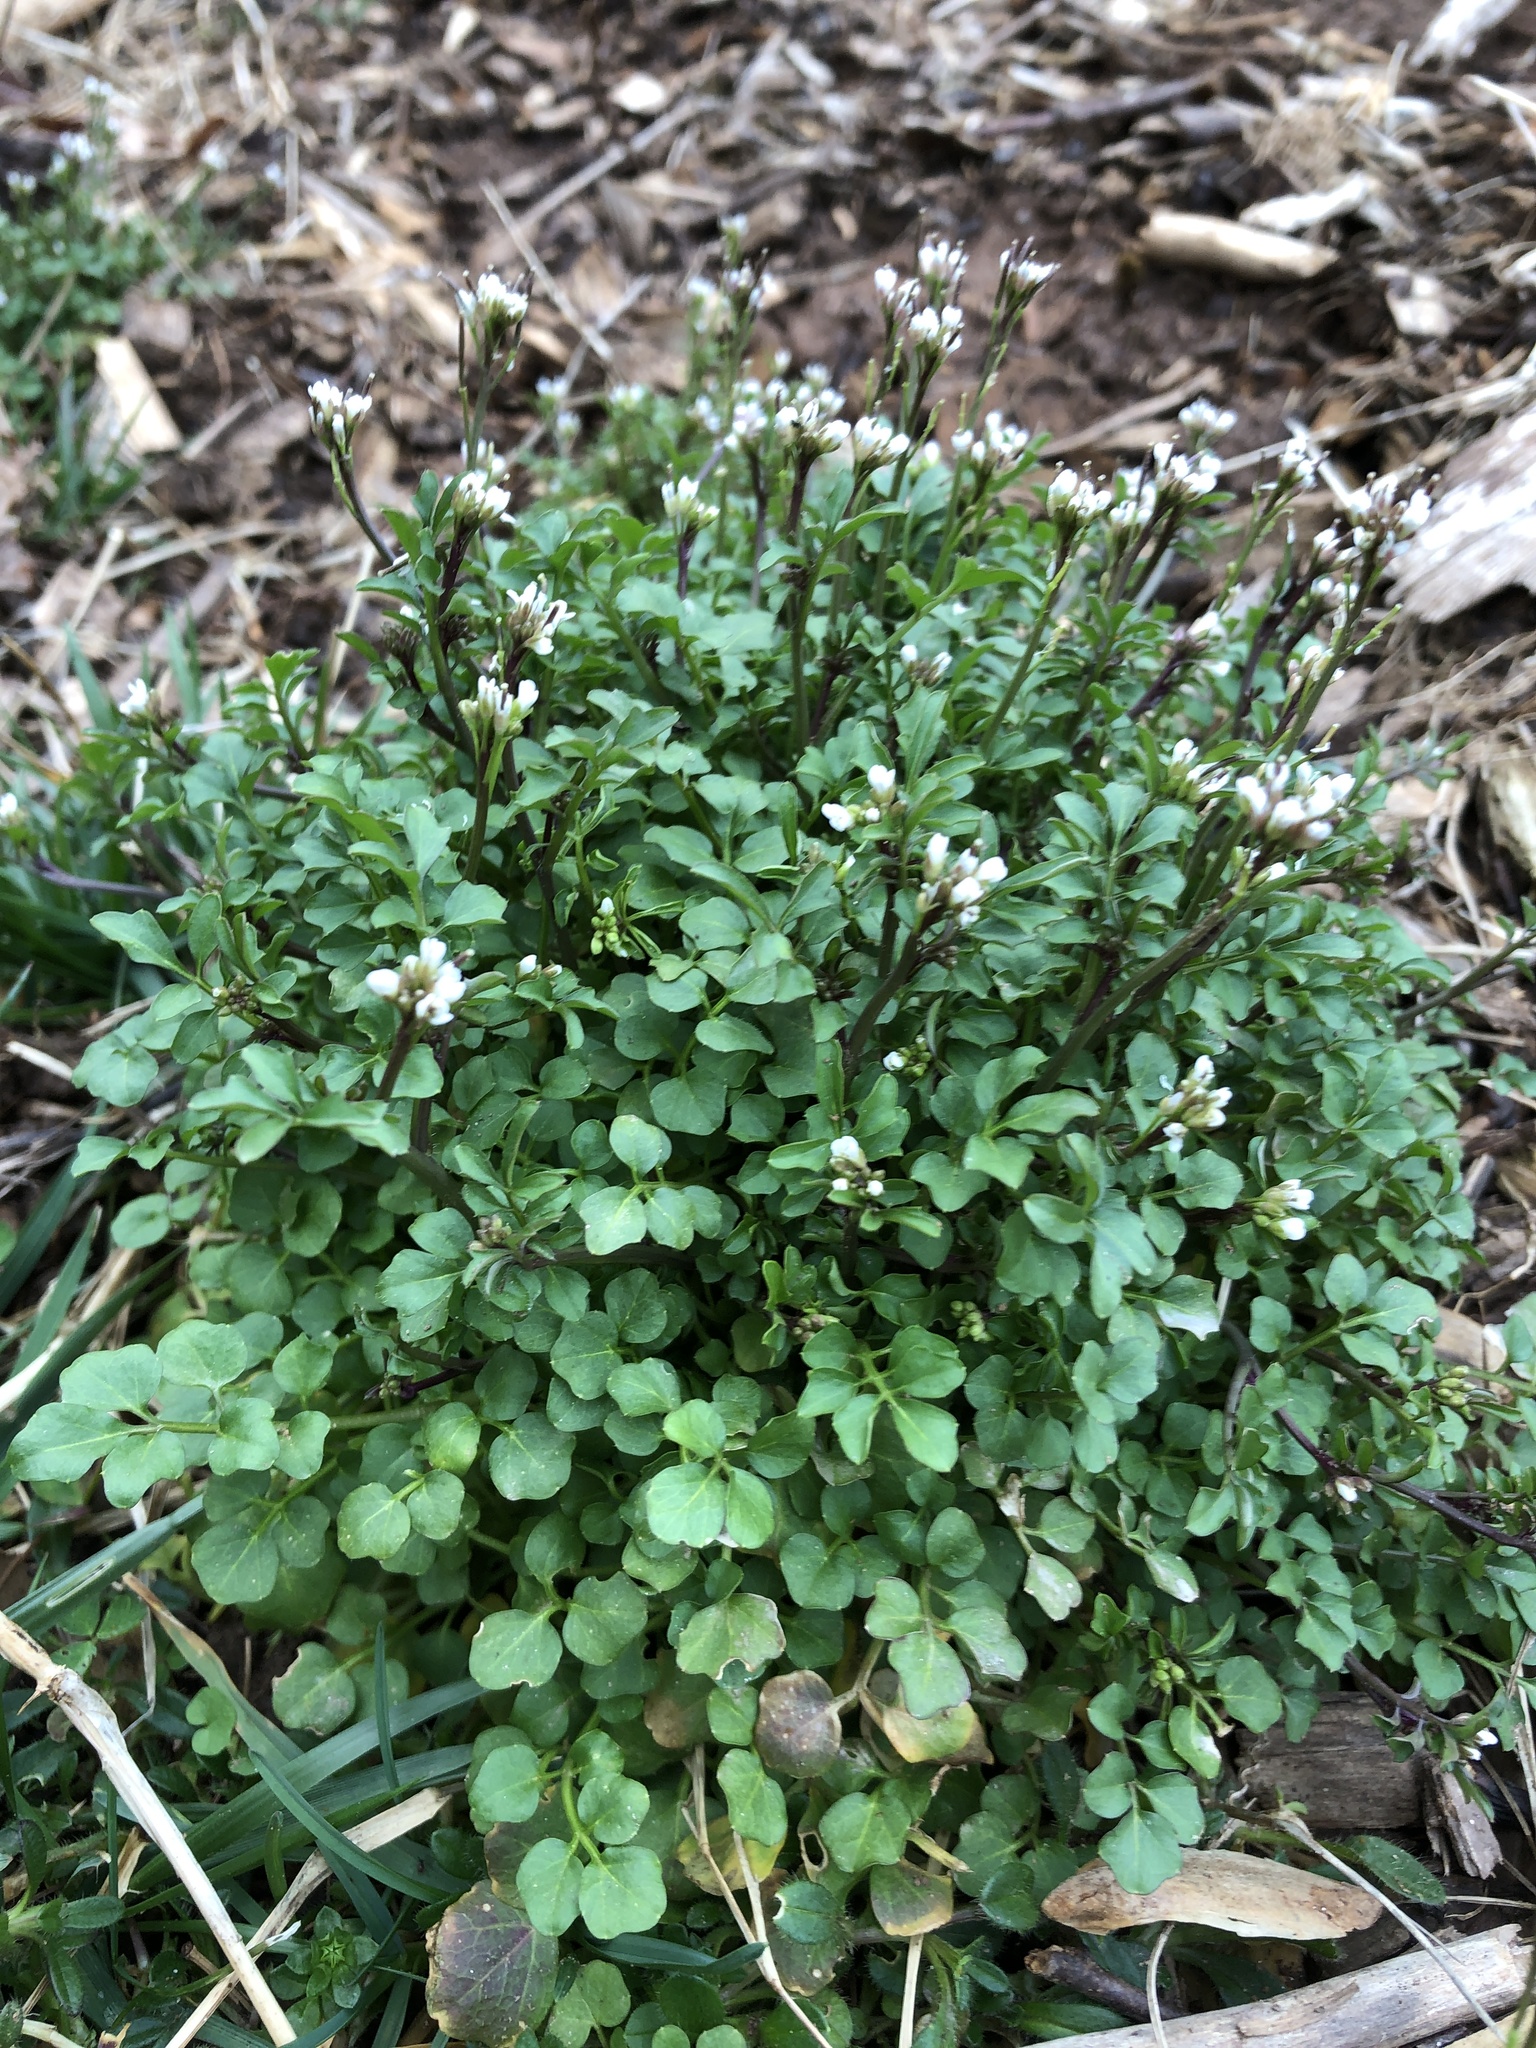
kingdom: Plantae
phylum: Tracheophyta
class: Magnoliopsida
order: Brassicales
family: Brassicaceae
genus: Cardamine
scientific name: Cardamine hirsuta
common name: Hairy bittercress
